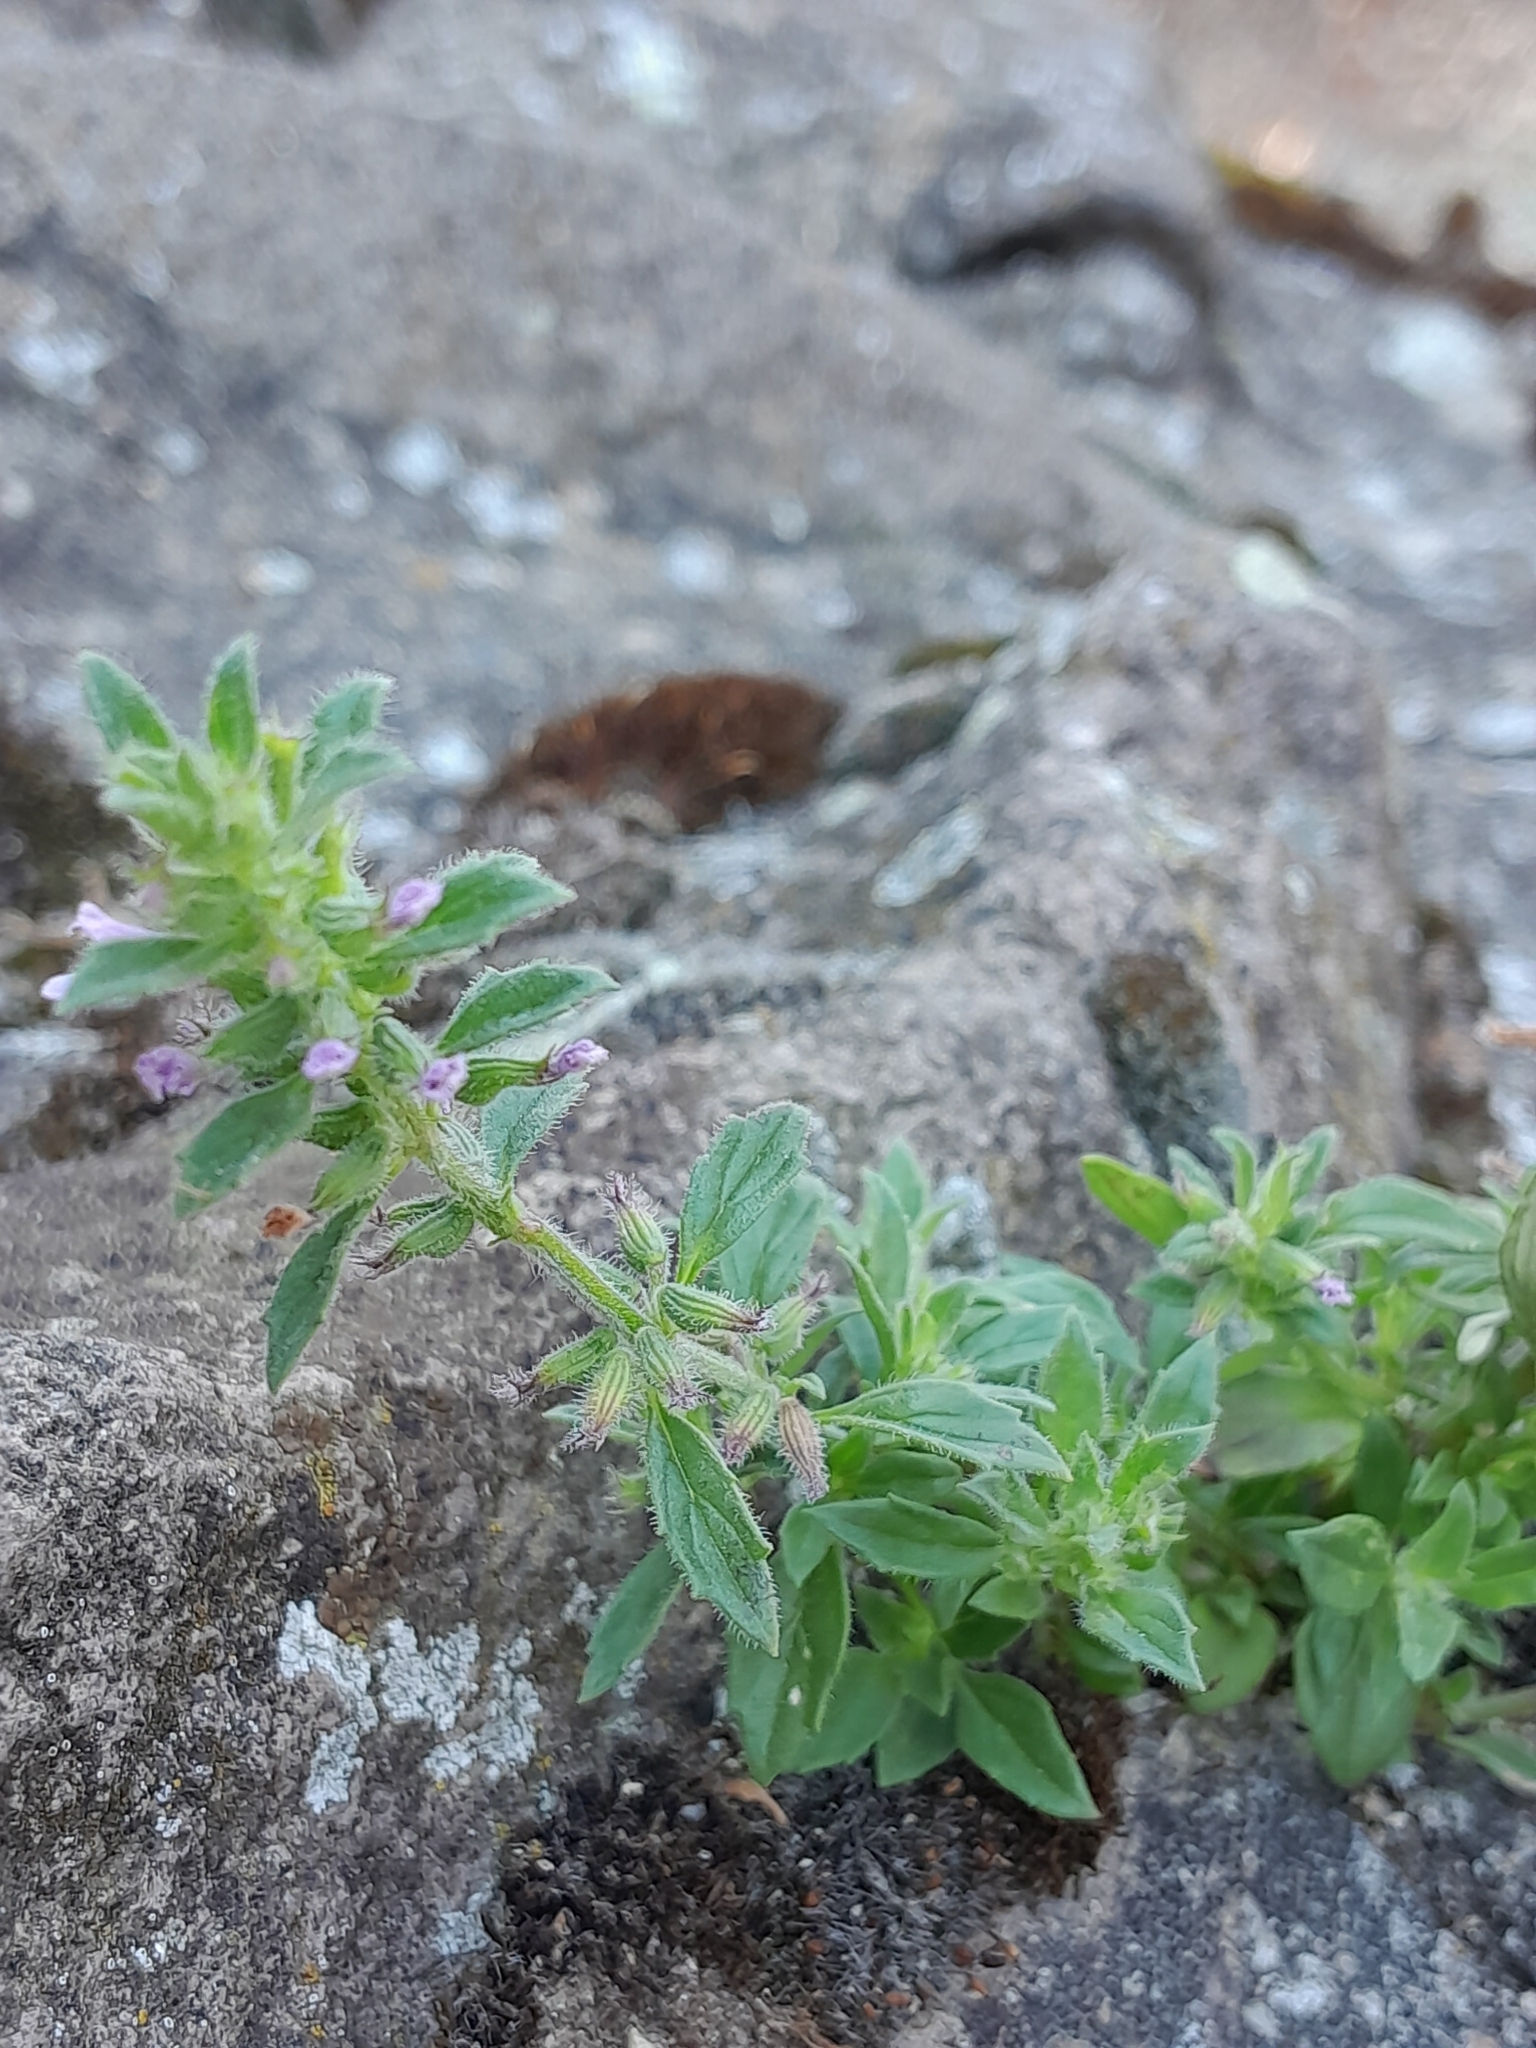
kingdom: Plantae
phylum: Tracheophyta
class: Magnoliopsida
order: Lamiales
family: Lamiaceae
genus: Clinopodium
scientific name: Clinopodium acinos
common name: Basil thyme
